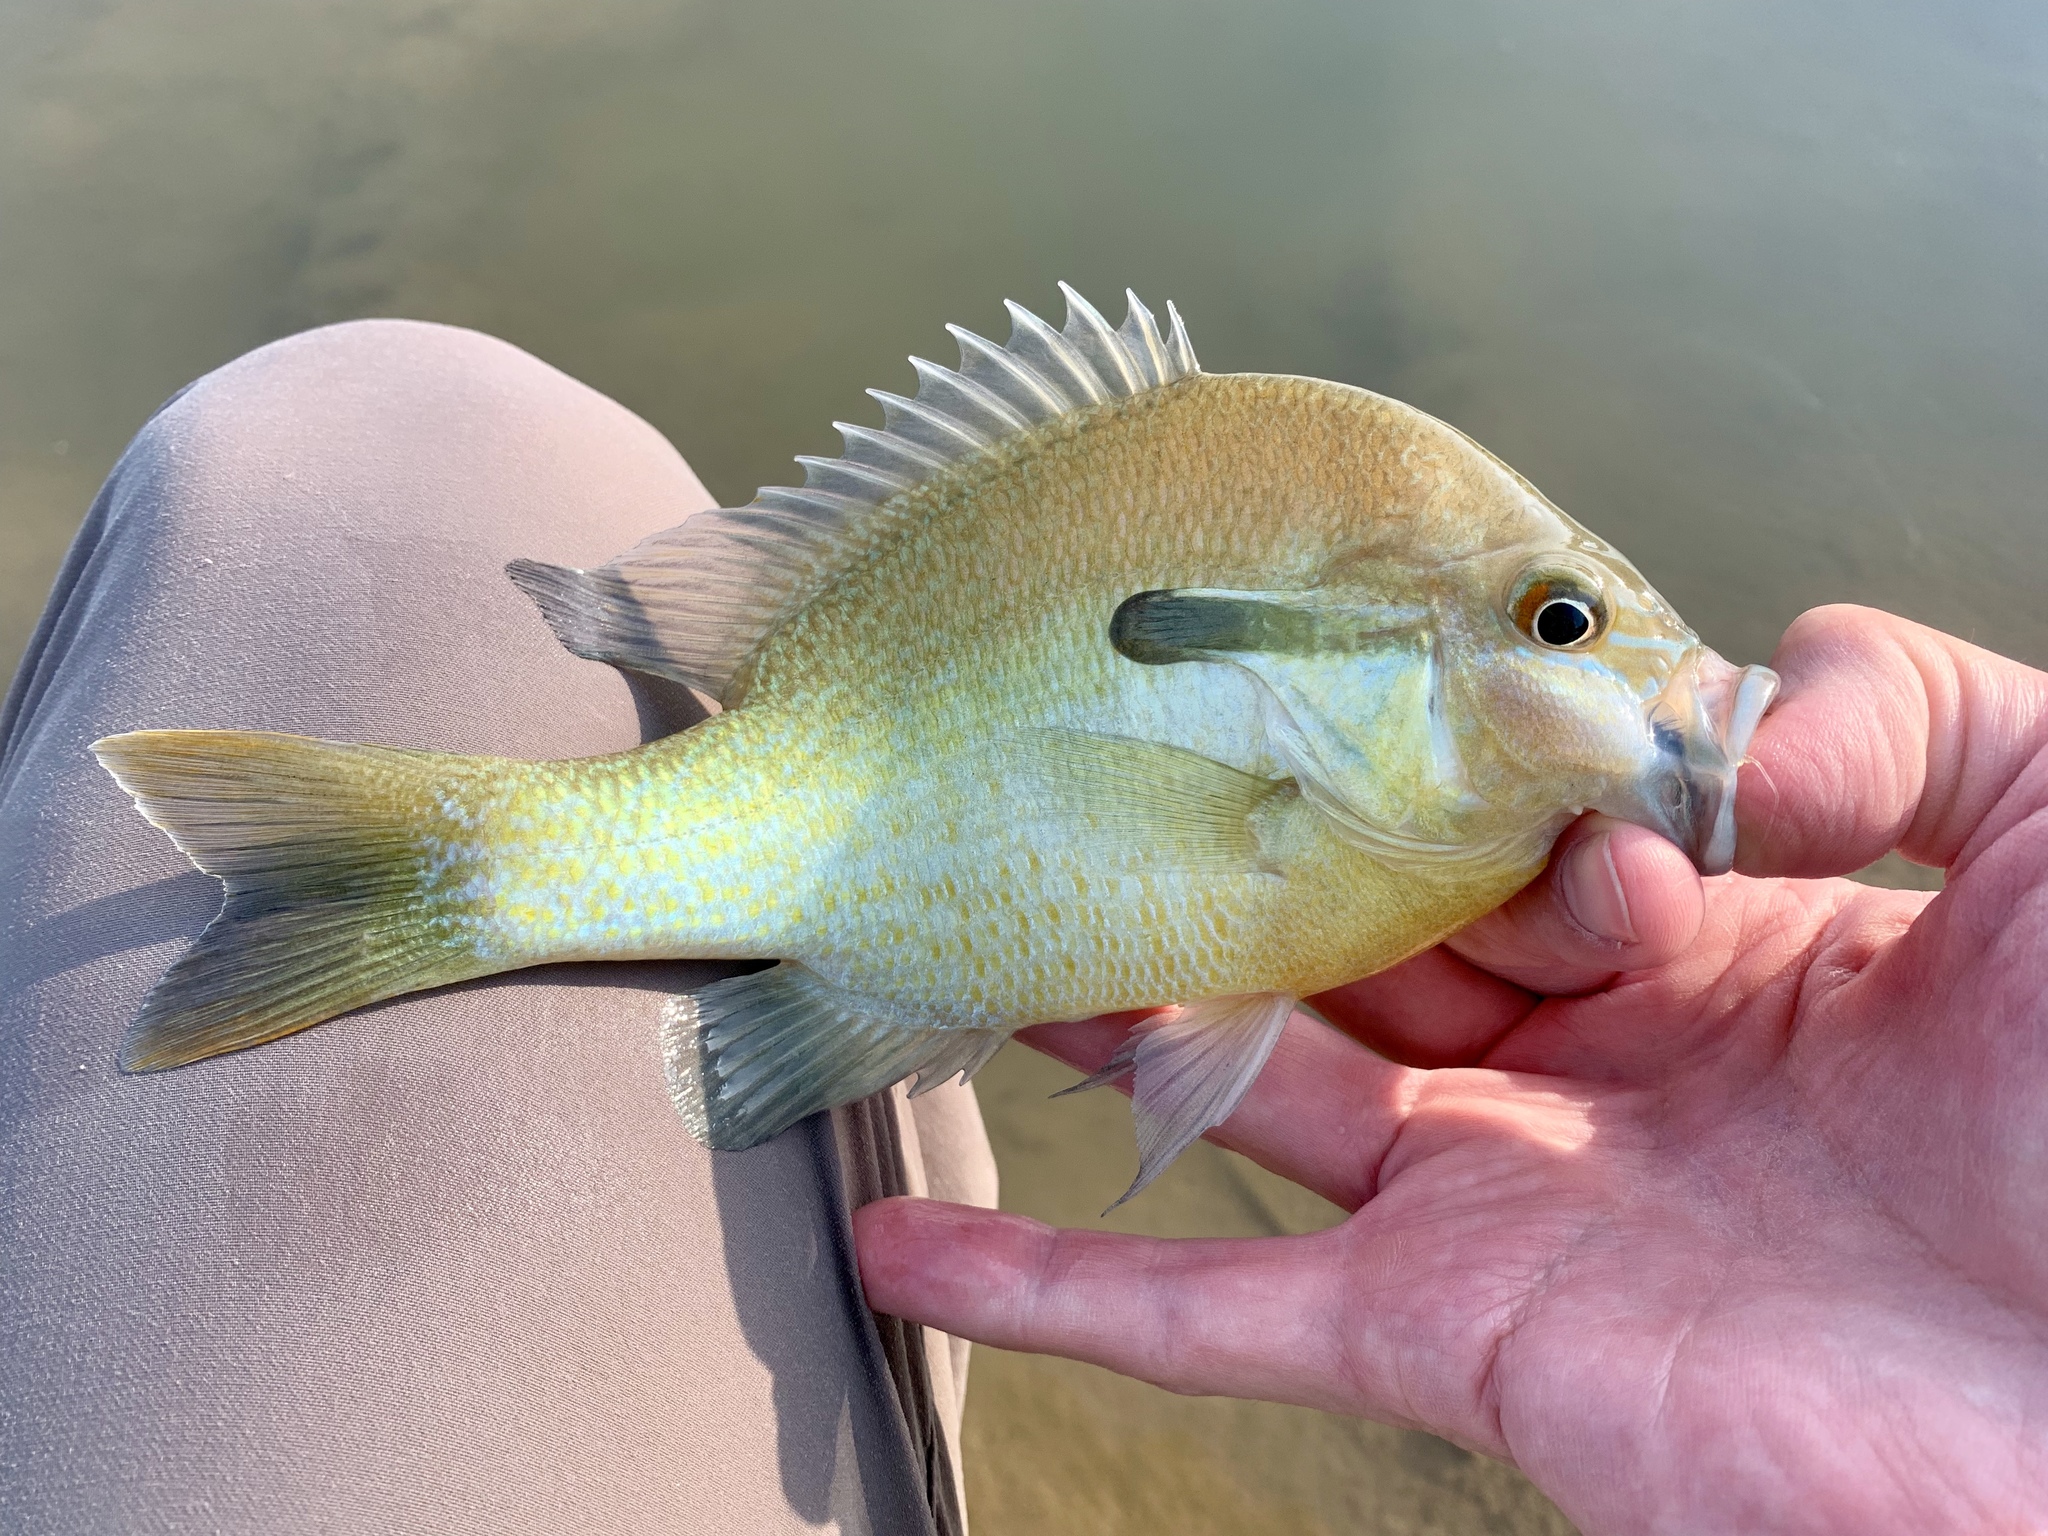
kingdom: Animalia
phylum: Chordata
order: Perciformes
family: Centrarchidae
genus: Lepomis
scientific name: Lepomis auritus
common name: Redbreast sunfish
